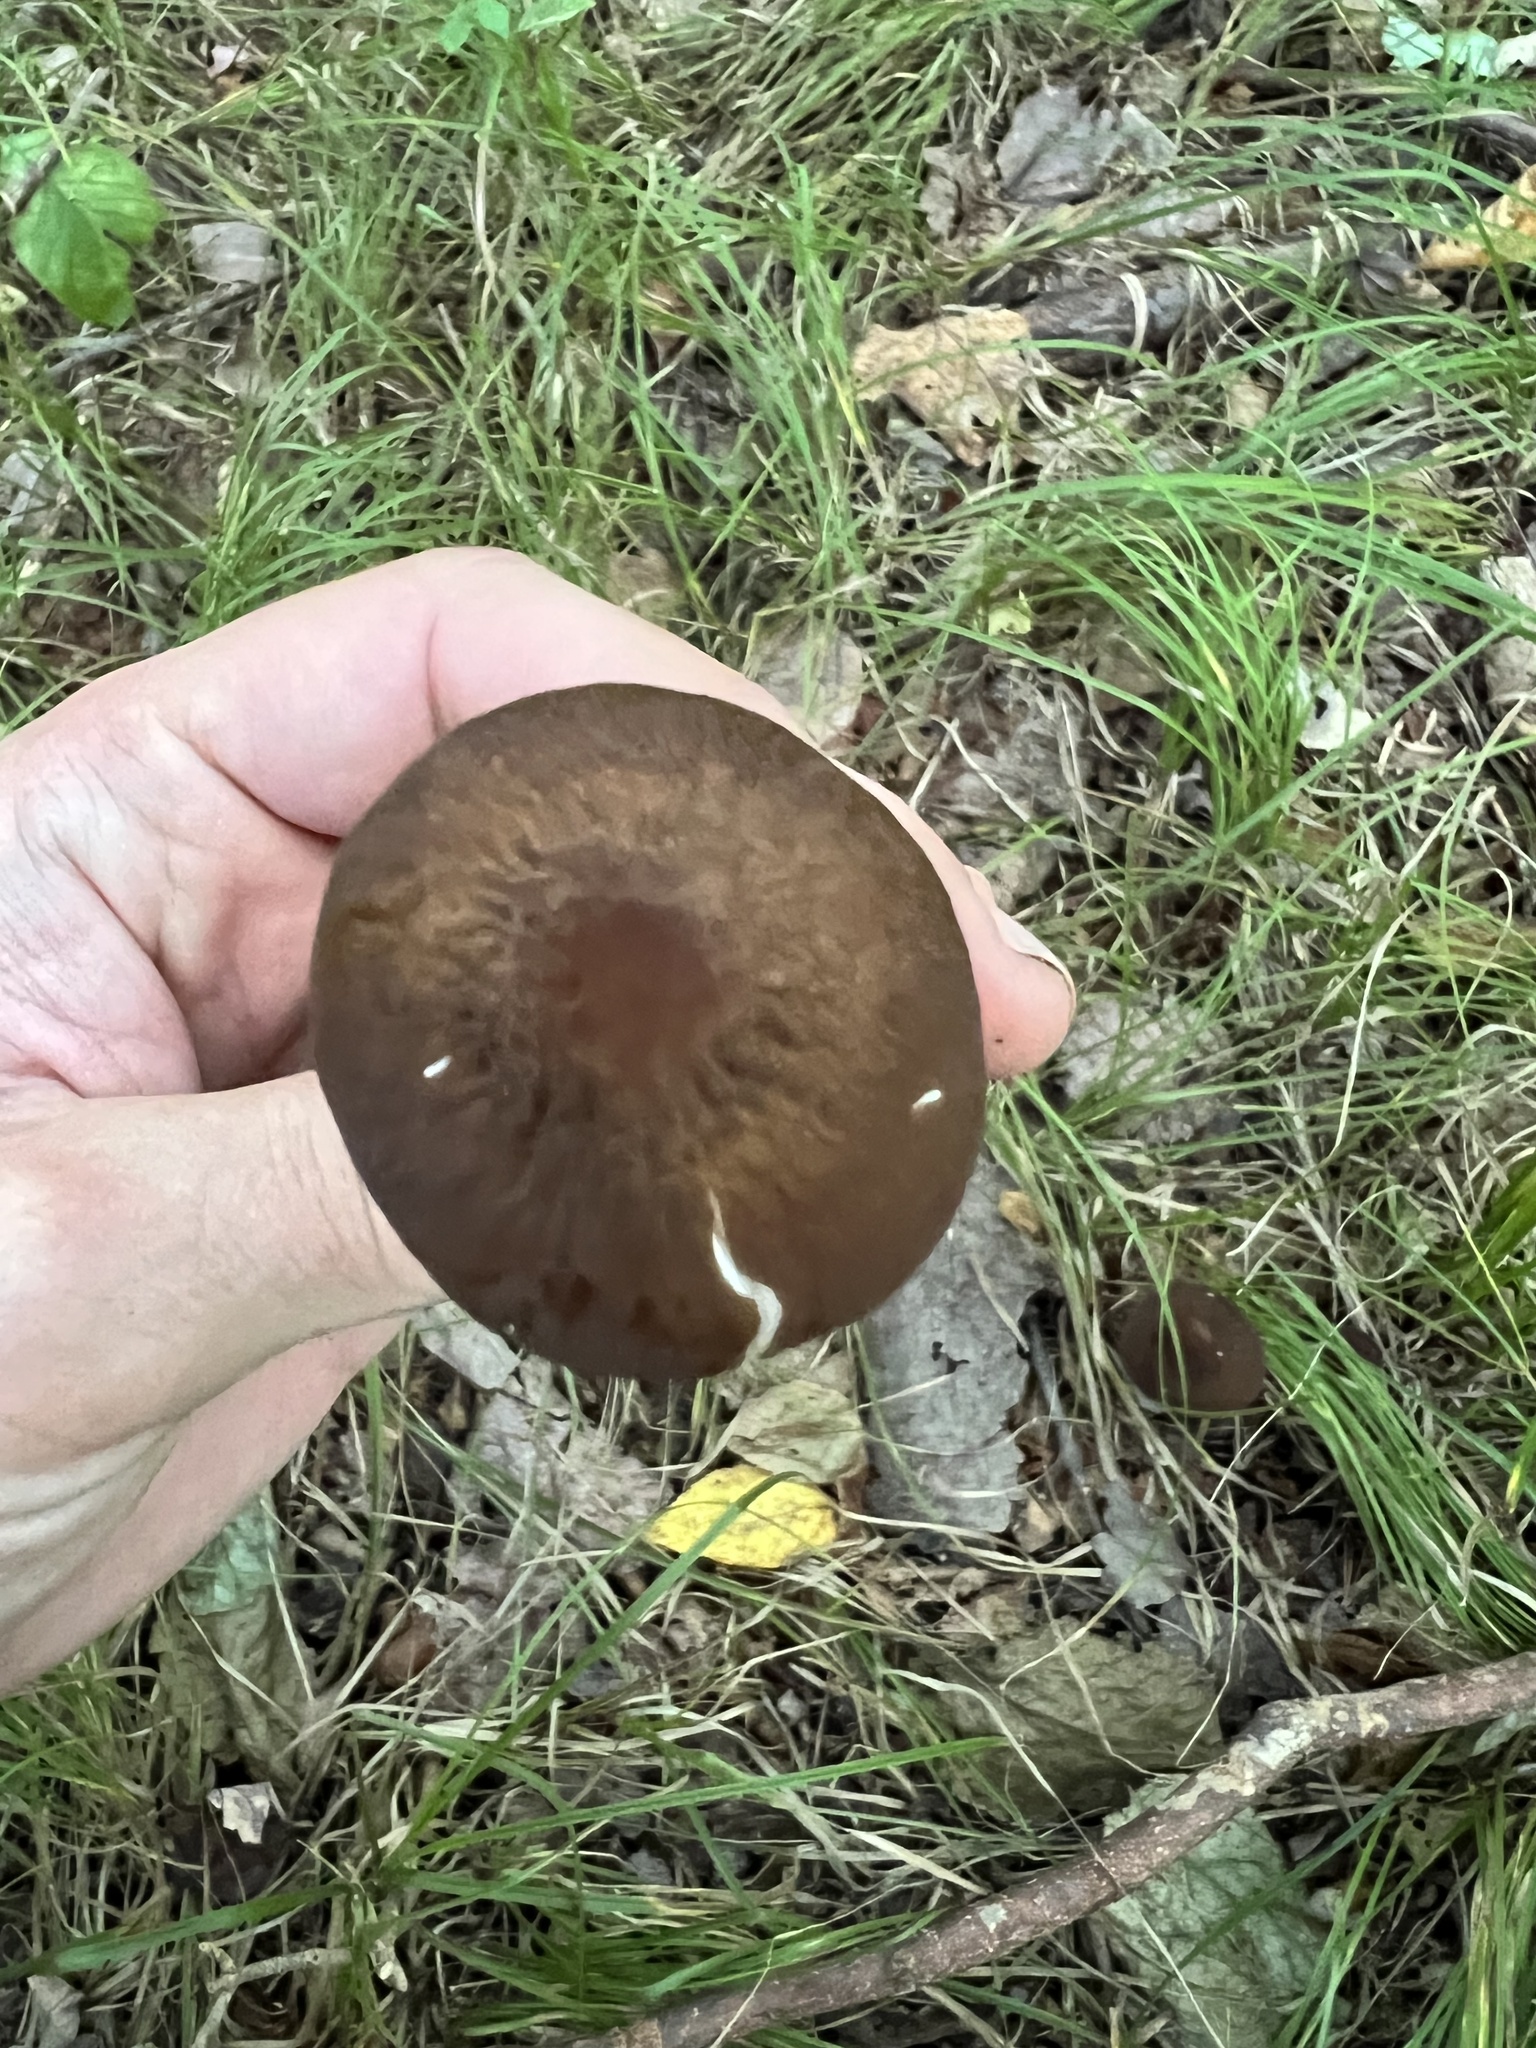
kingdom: Fungi
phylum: Basidiomycota
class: Agaricomycetes
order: Agaricales
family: Physalacriaceae
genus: Hymenopellis
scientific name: Hymenopellis furfuracea
